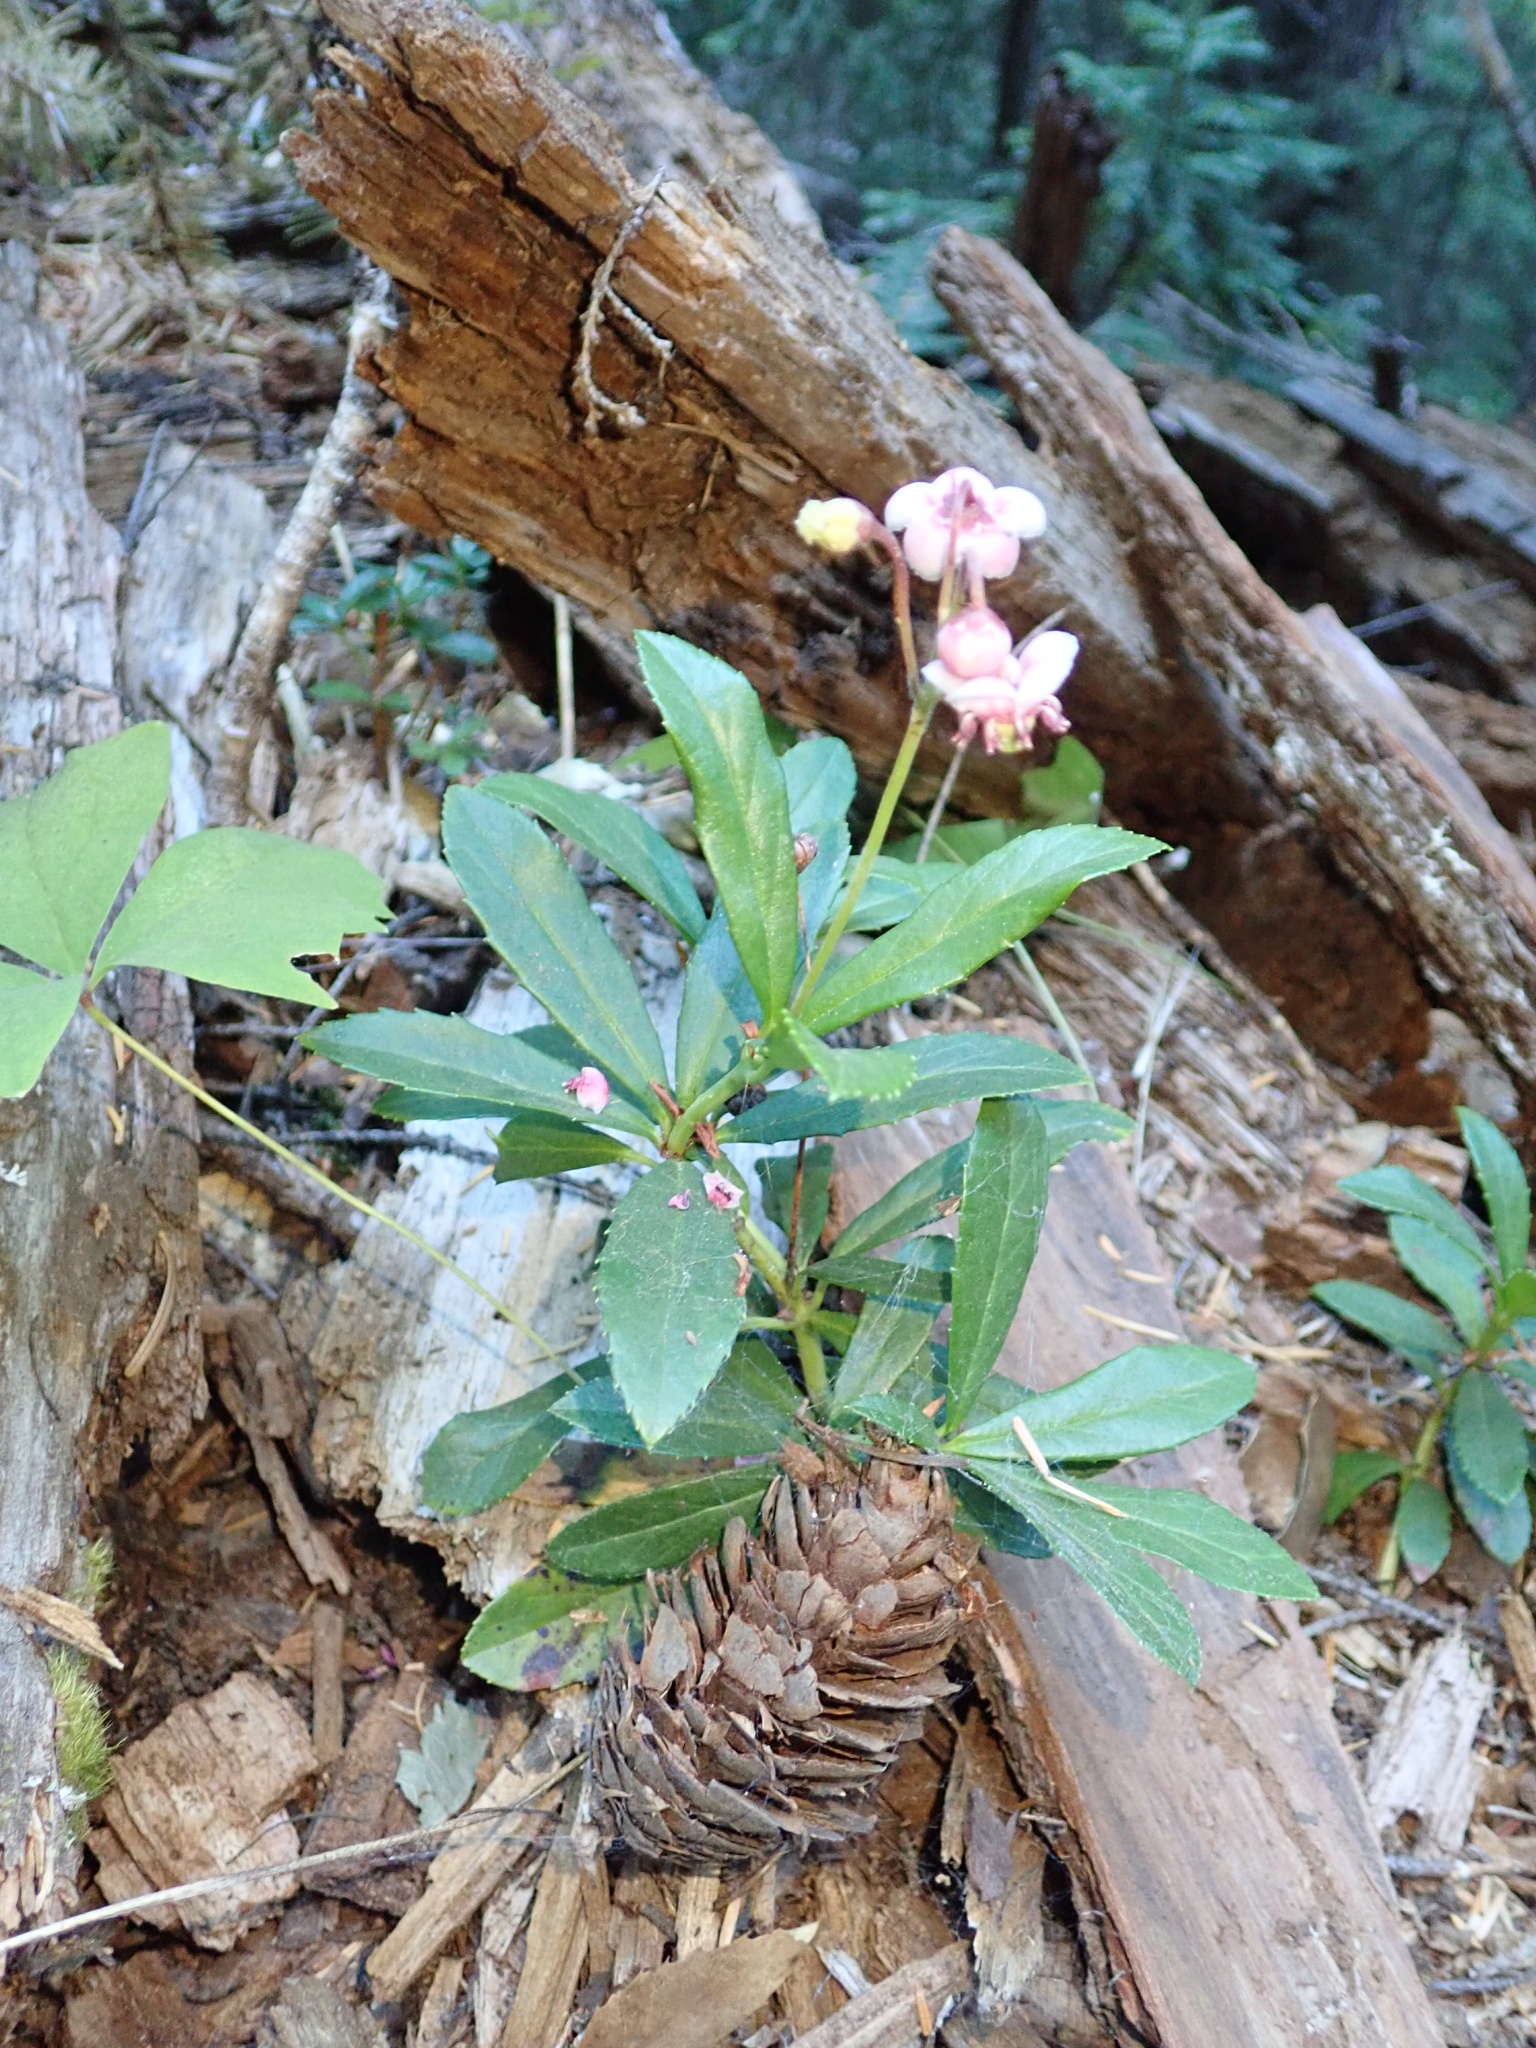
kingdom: Plantae
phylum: Tracheophyta
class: Magnoliopsida
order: Ericales
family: Ericaceae
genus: Chimaphila
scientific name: Chimaphila umbellata
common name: Pipsissewa
